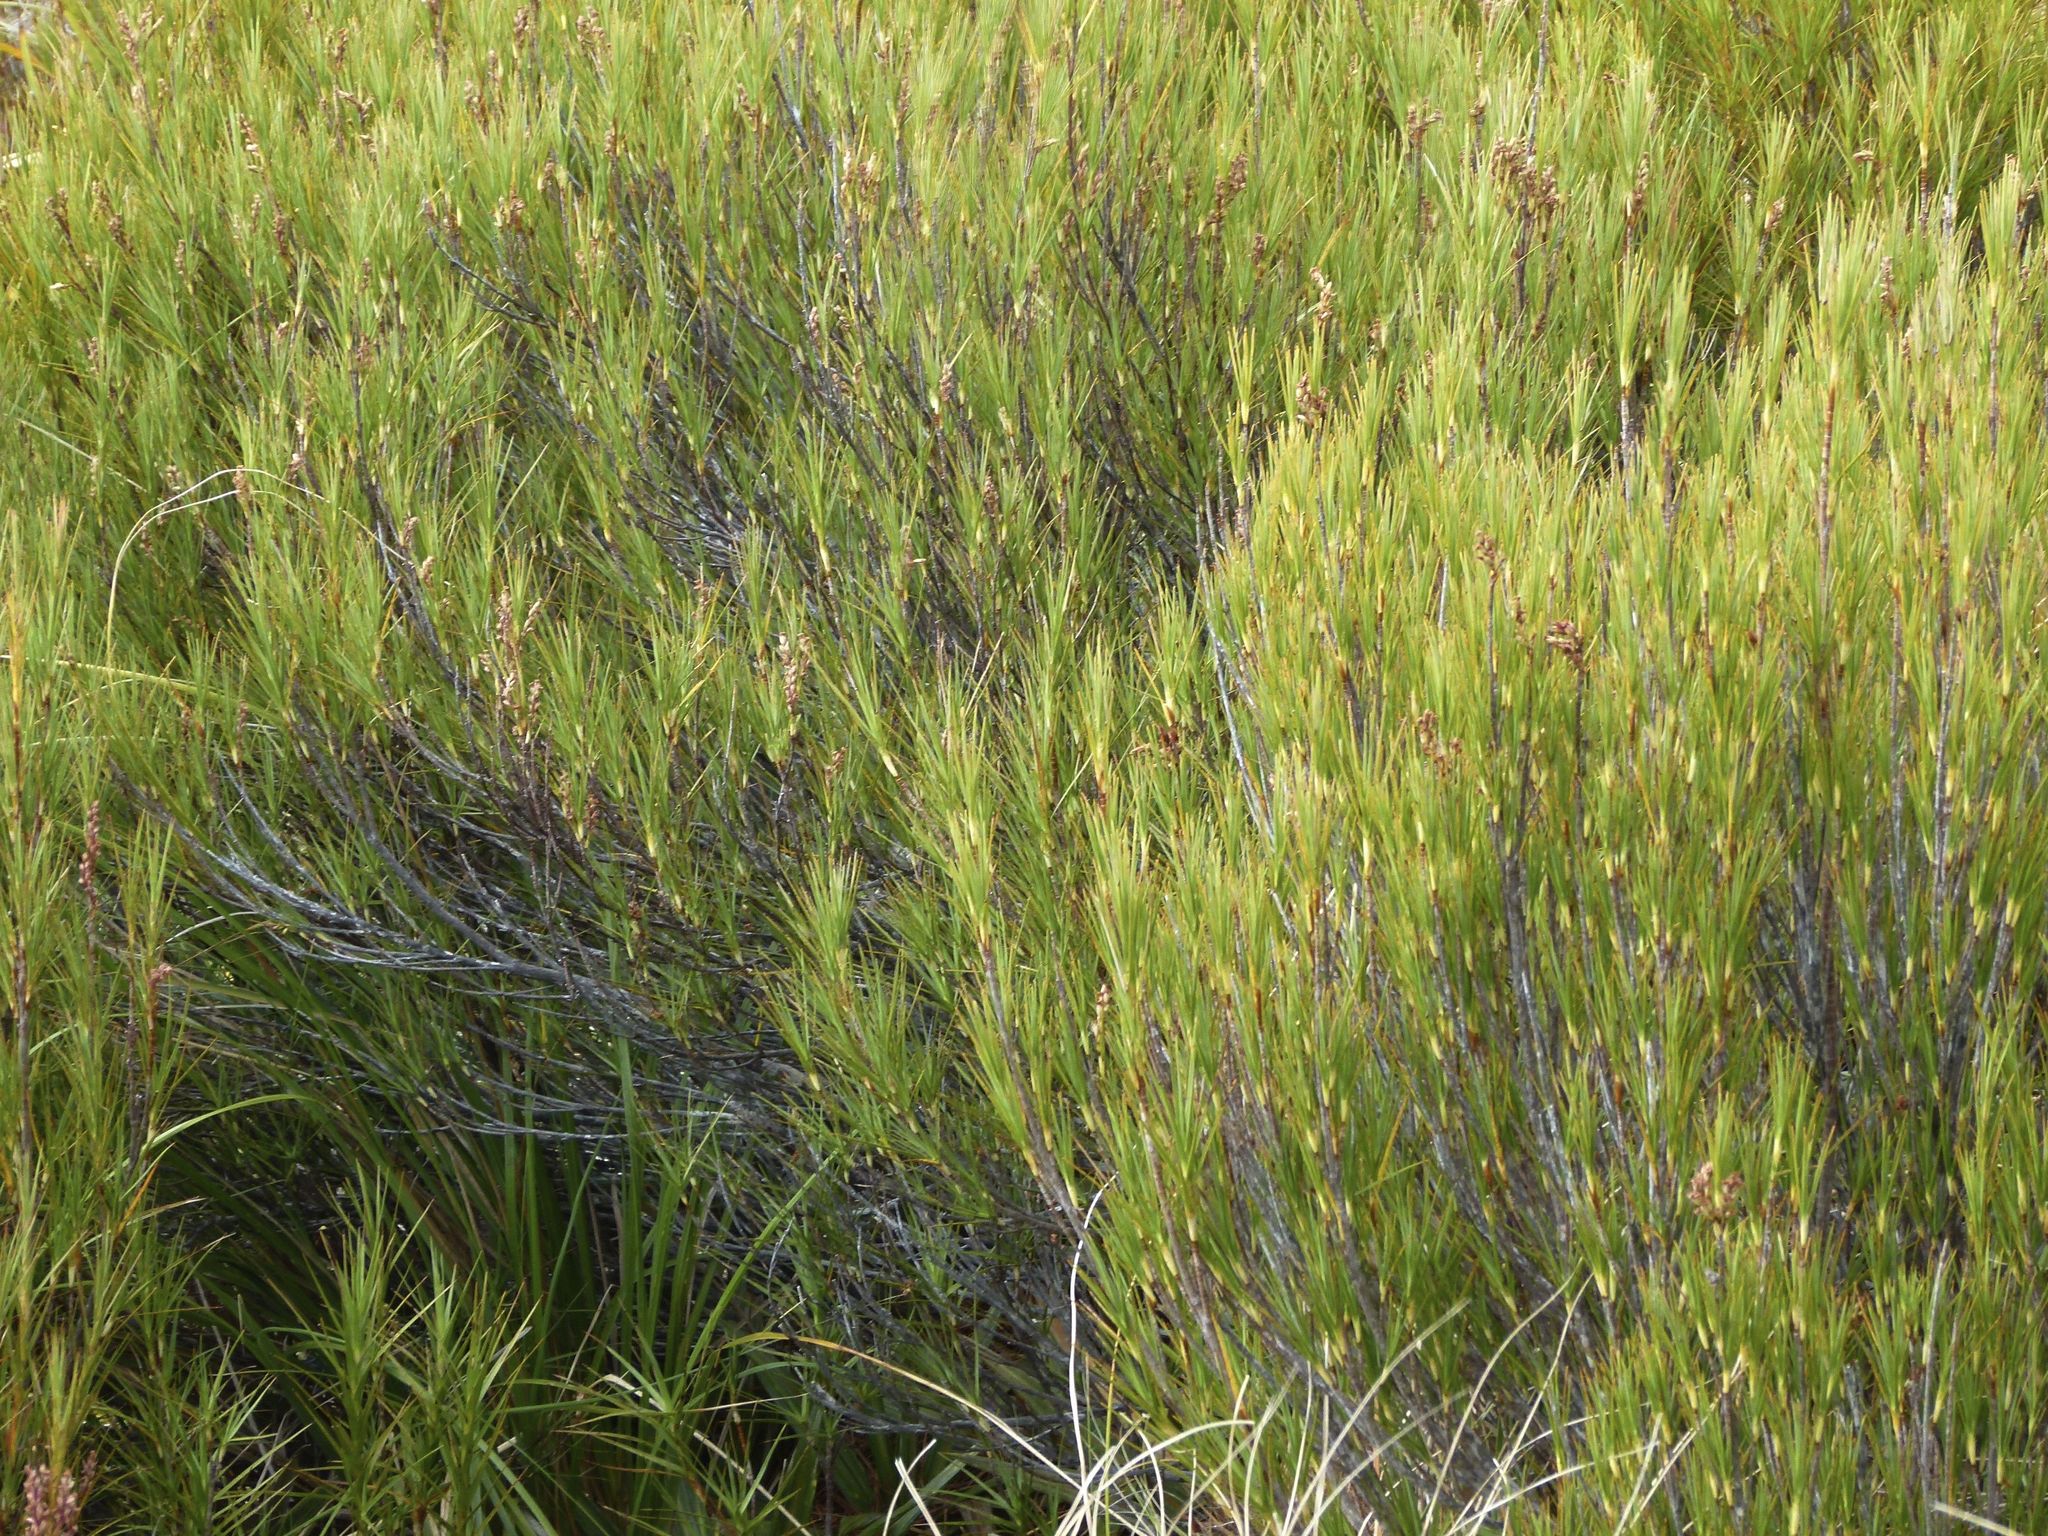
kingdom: Plantae
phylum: Tracheophyta
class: Magnoliopsida
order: Ericales
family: Ericaceae
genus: Dracophyllum
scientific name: Dracophyllum longifolium
